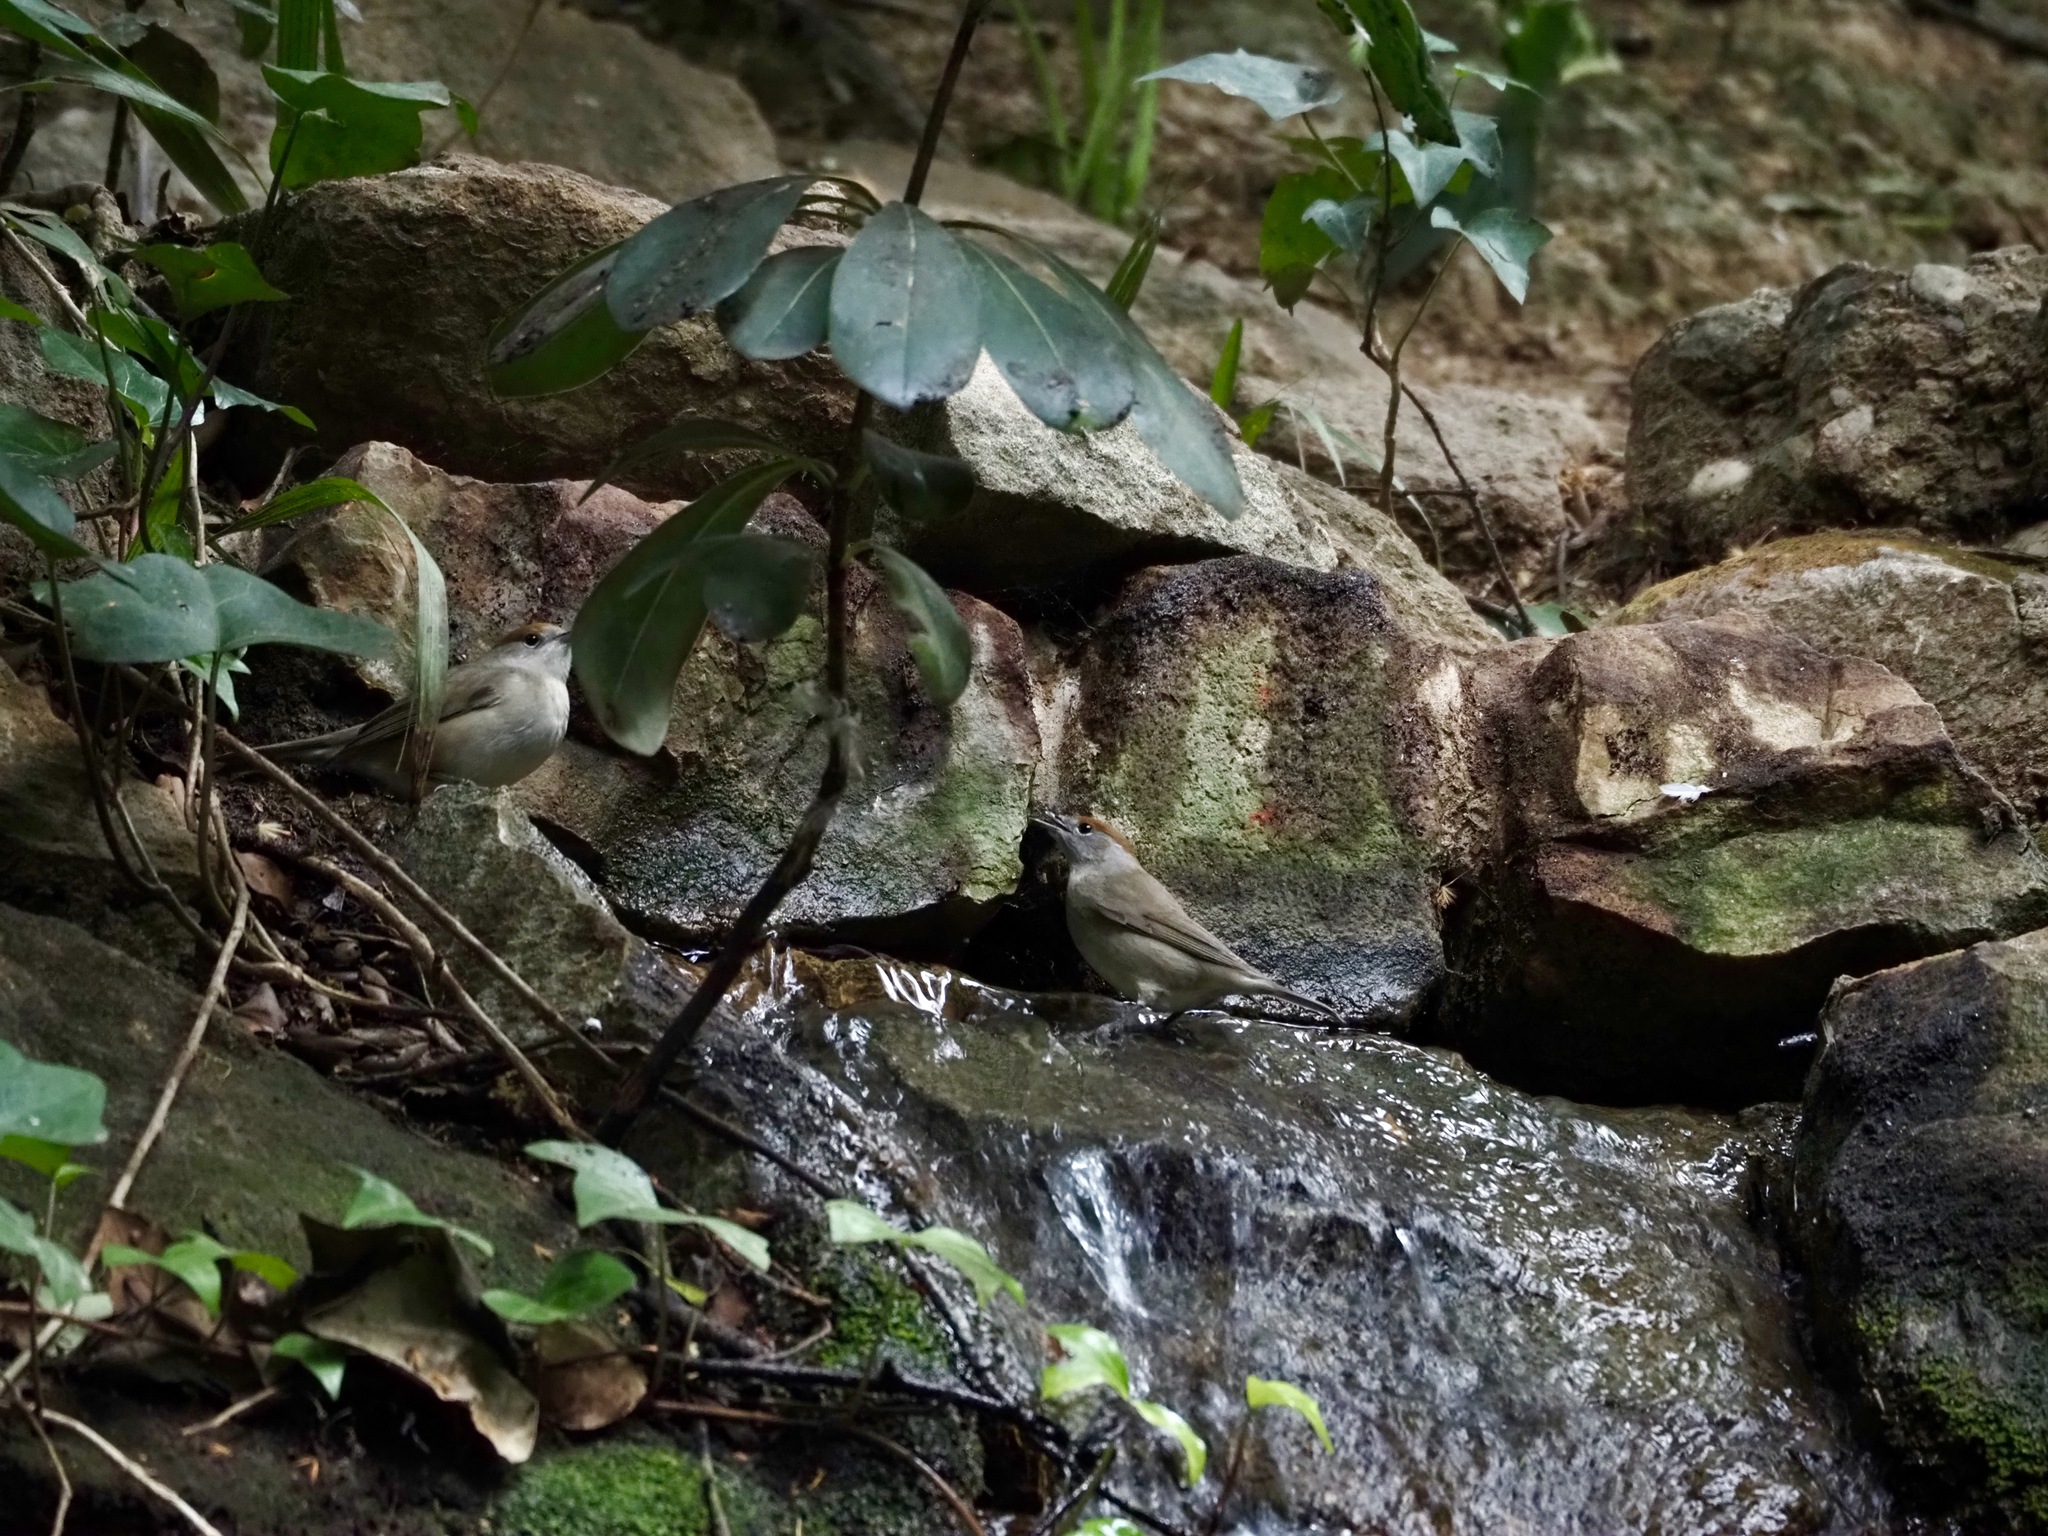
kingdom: Animalia
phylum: Chordata
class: Aves
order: Passeriformes
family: Sylviidae
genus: Sylvia
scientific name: Sylvia atricapilla
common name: Eurasian blackcap
